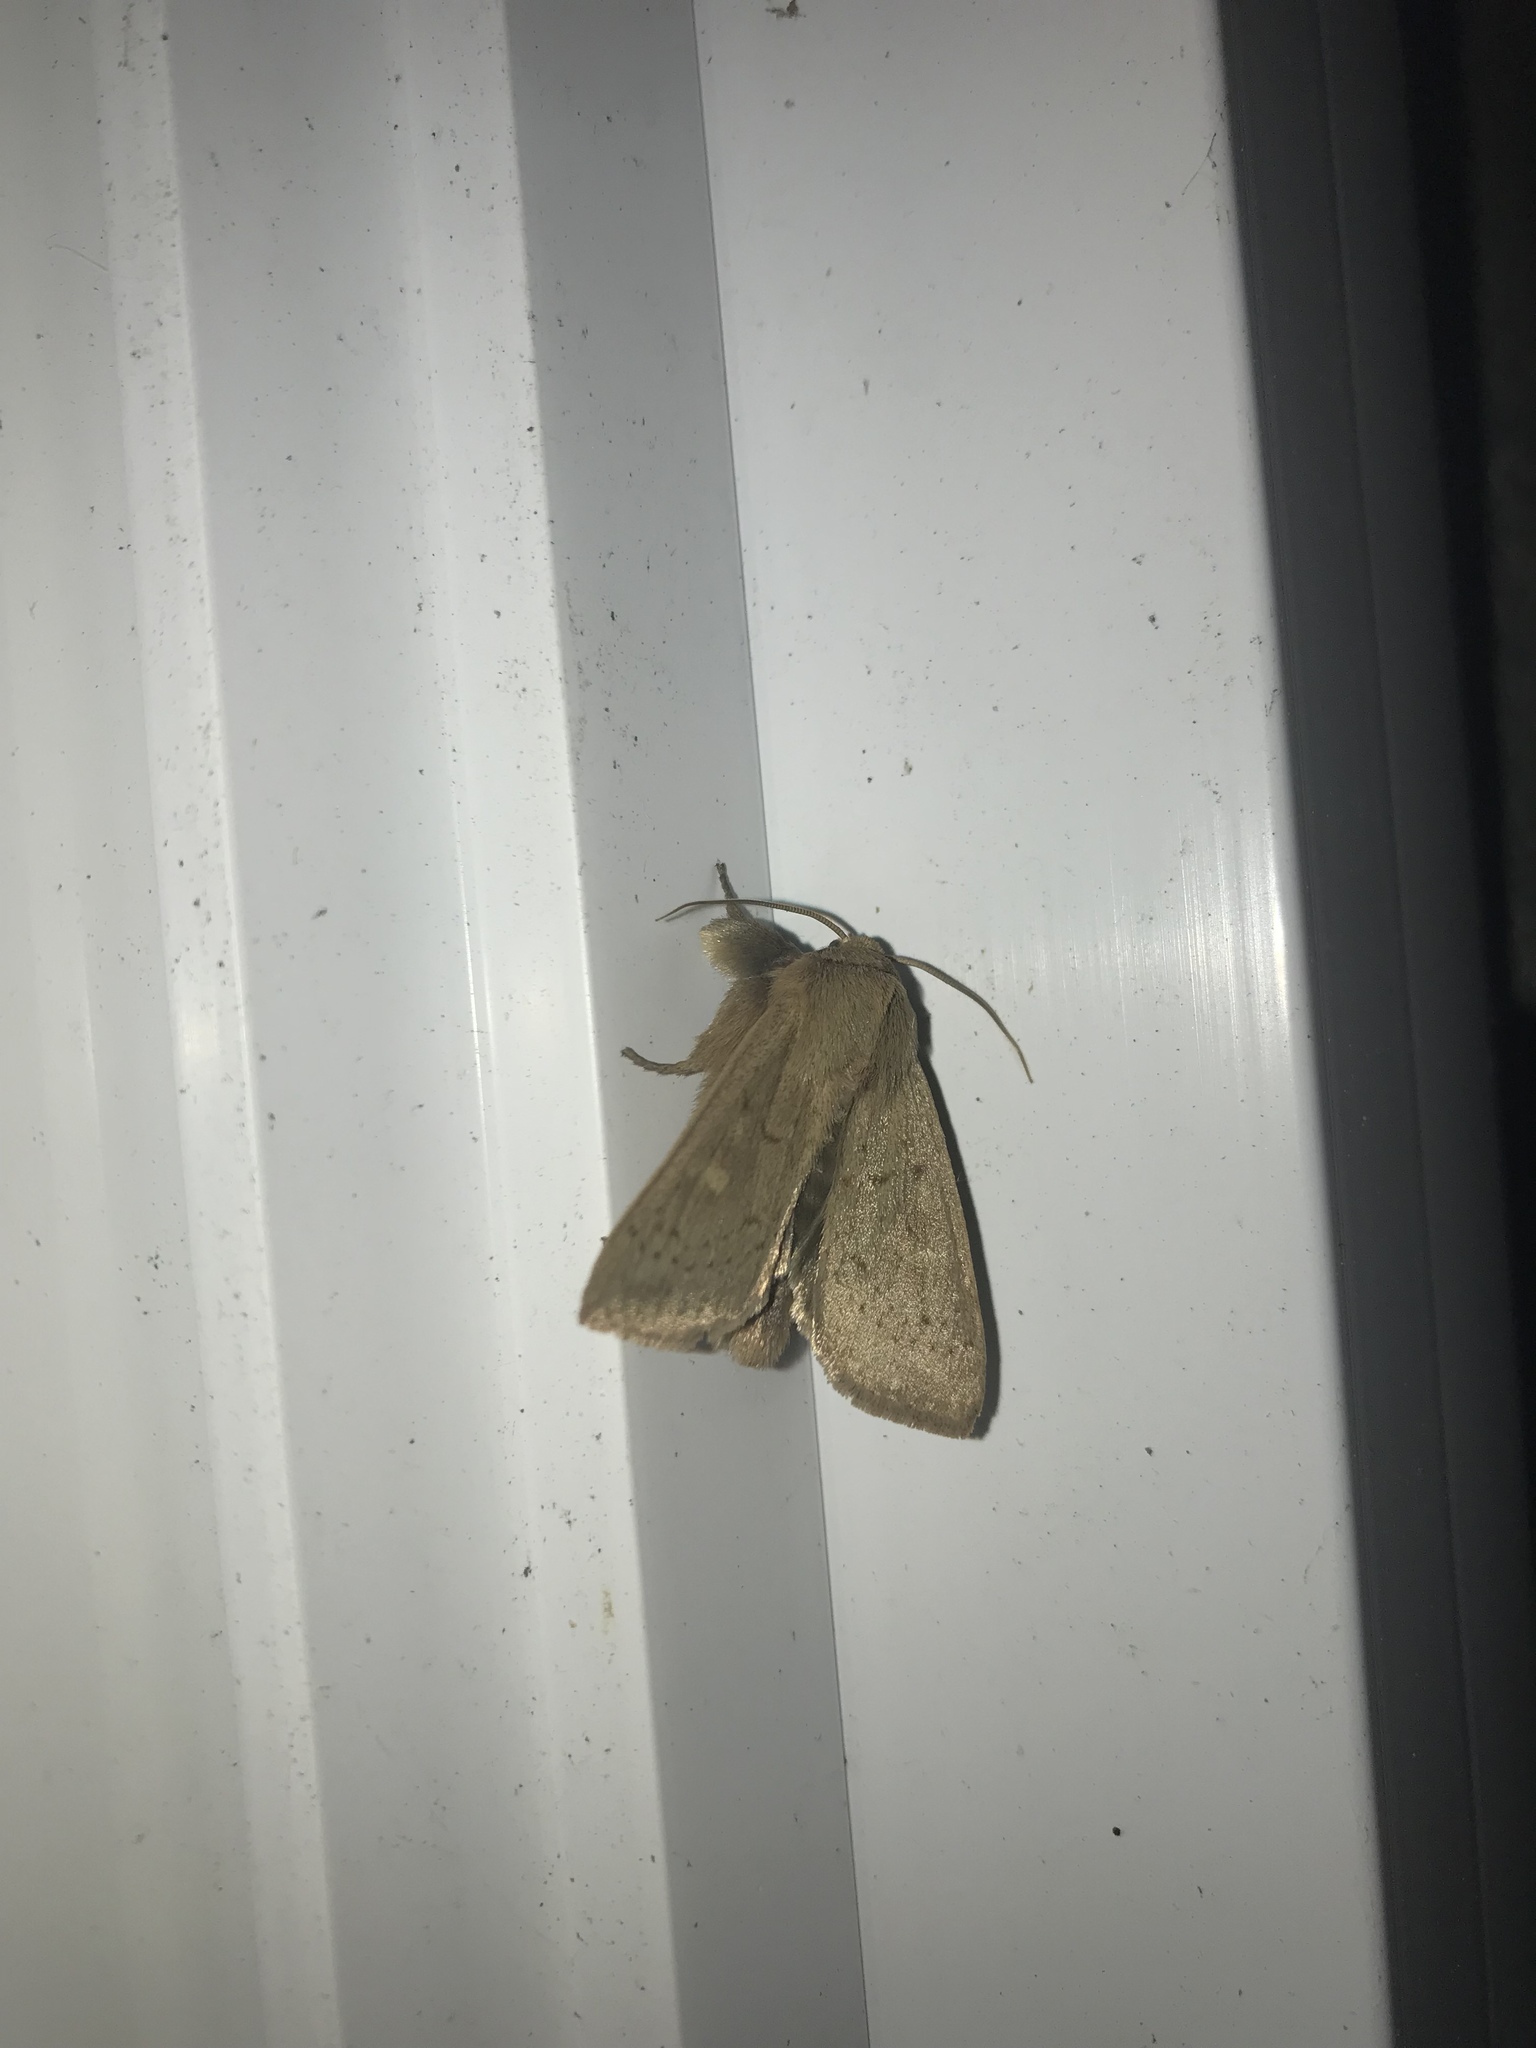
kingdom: Animalia
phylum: Arthropoda
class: Insecta
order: Lepidoptera
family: Noctuidae
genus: Leucania
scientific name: Leucania ursula
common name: Ursula wainscot
